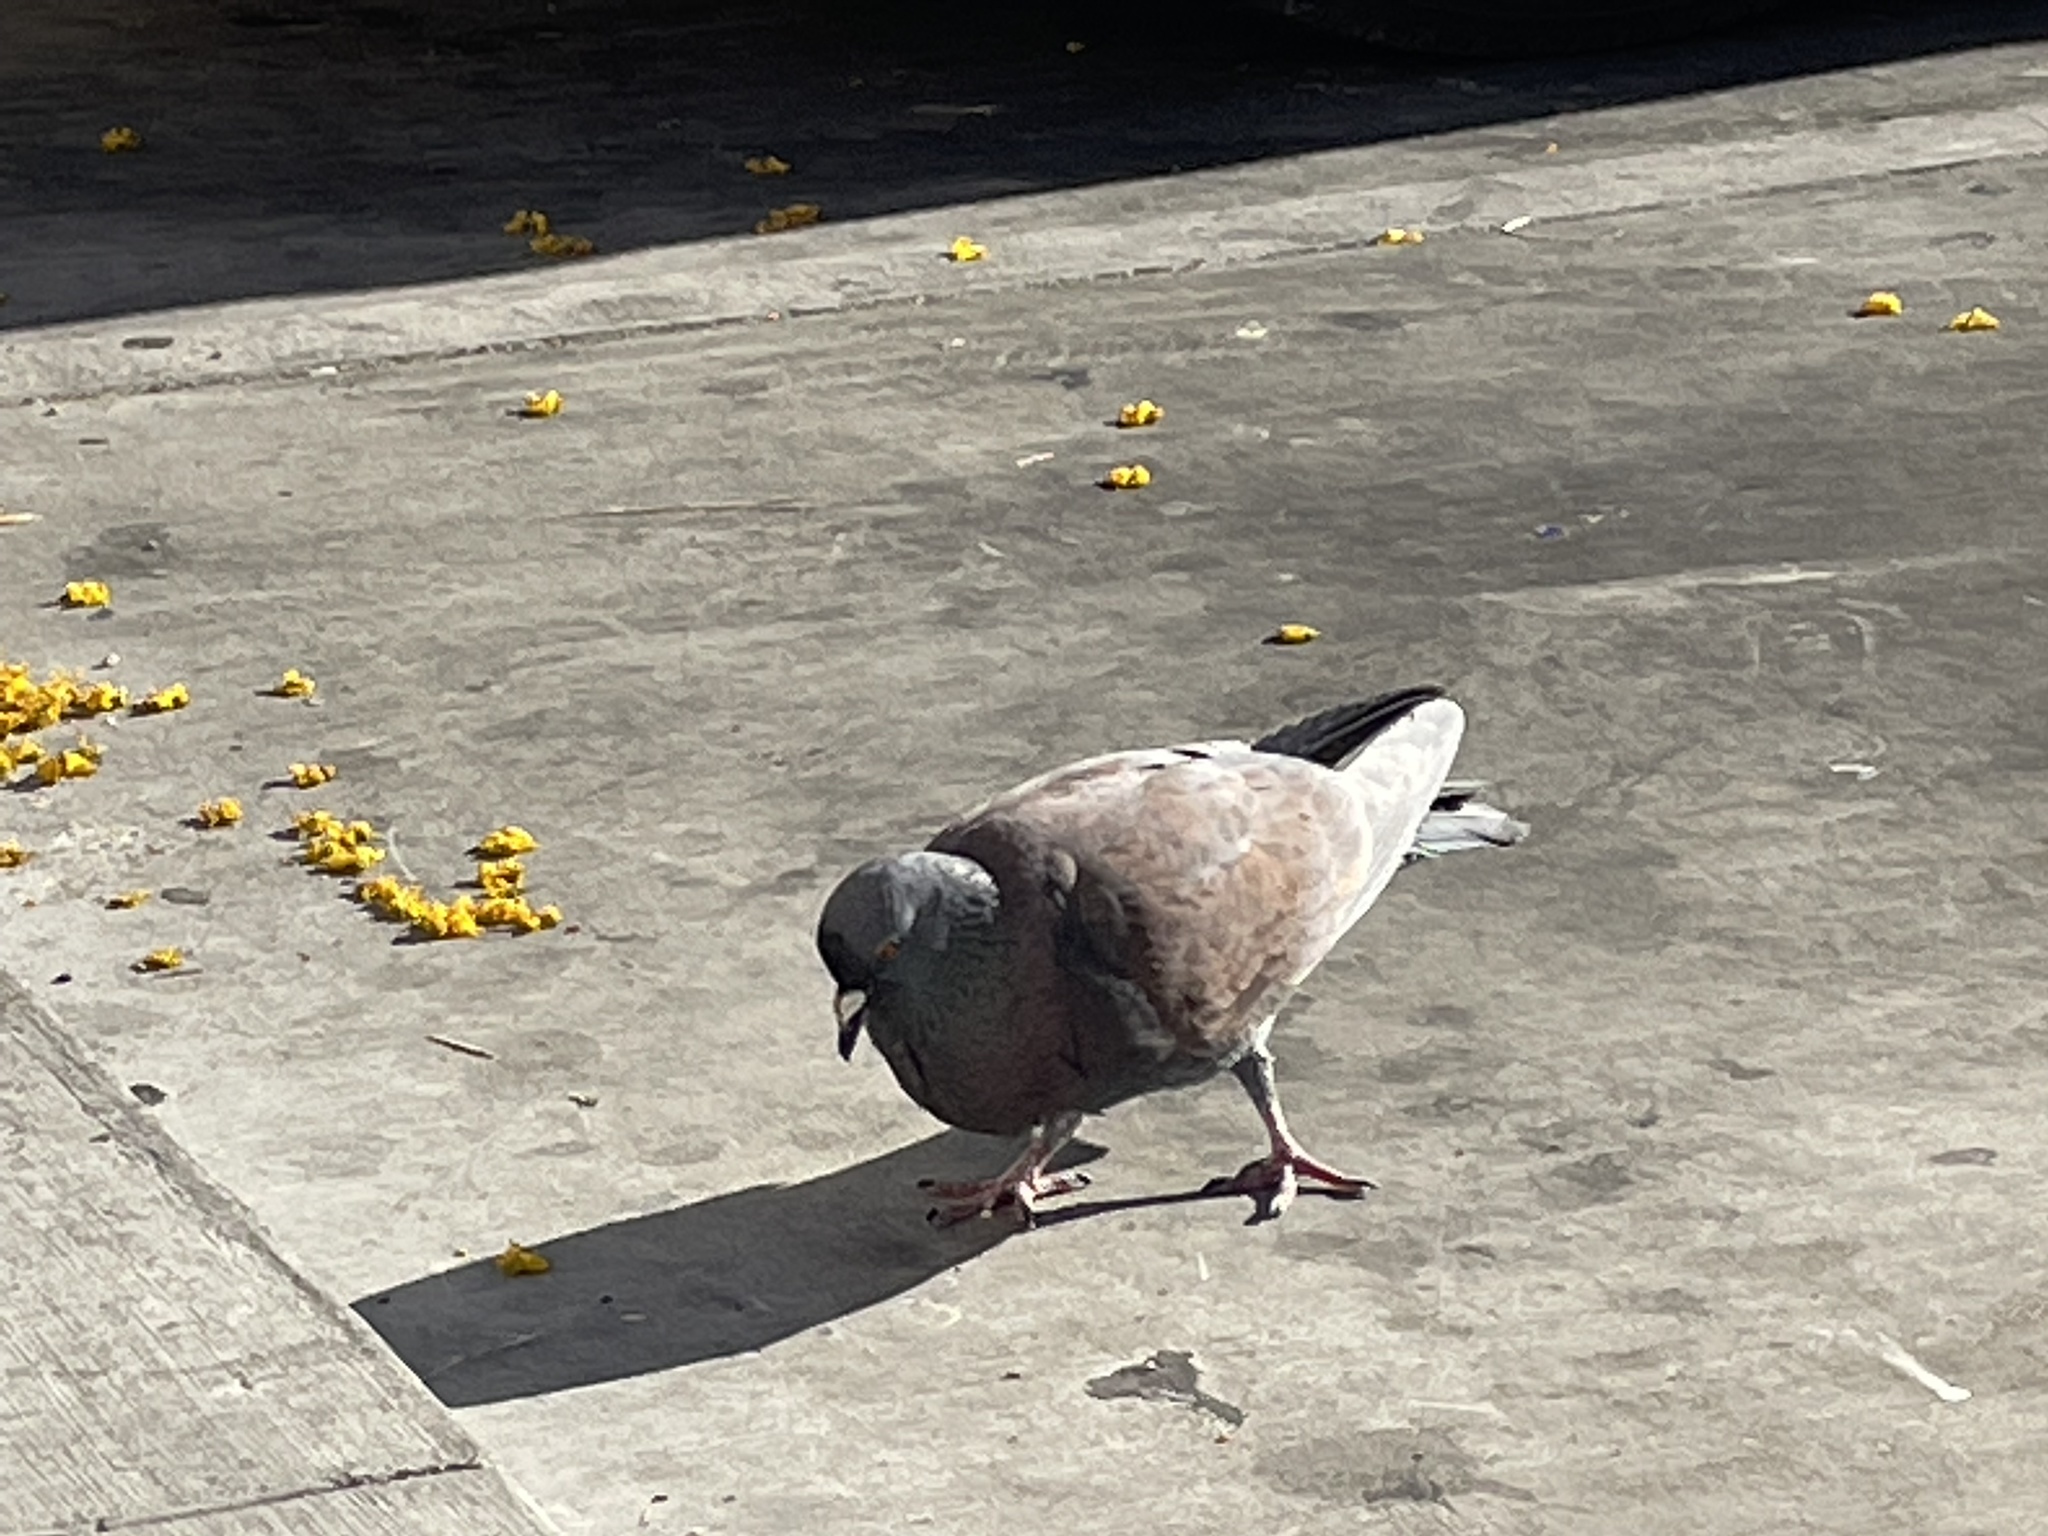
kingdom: Animalia
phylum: Chordata
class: Aves
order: Columbiformes
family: Columbidae
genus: Columba
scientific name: Columba livia
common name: Rock pigeon
